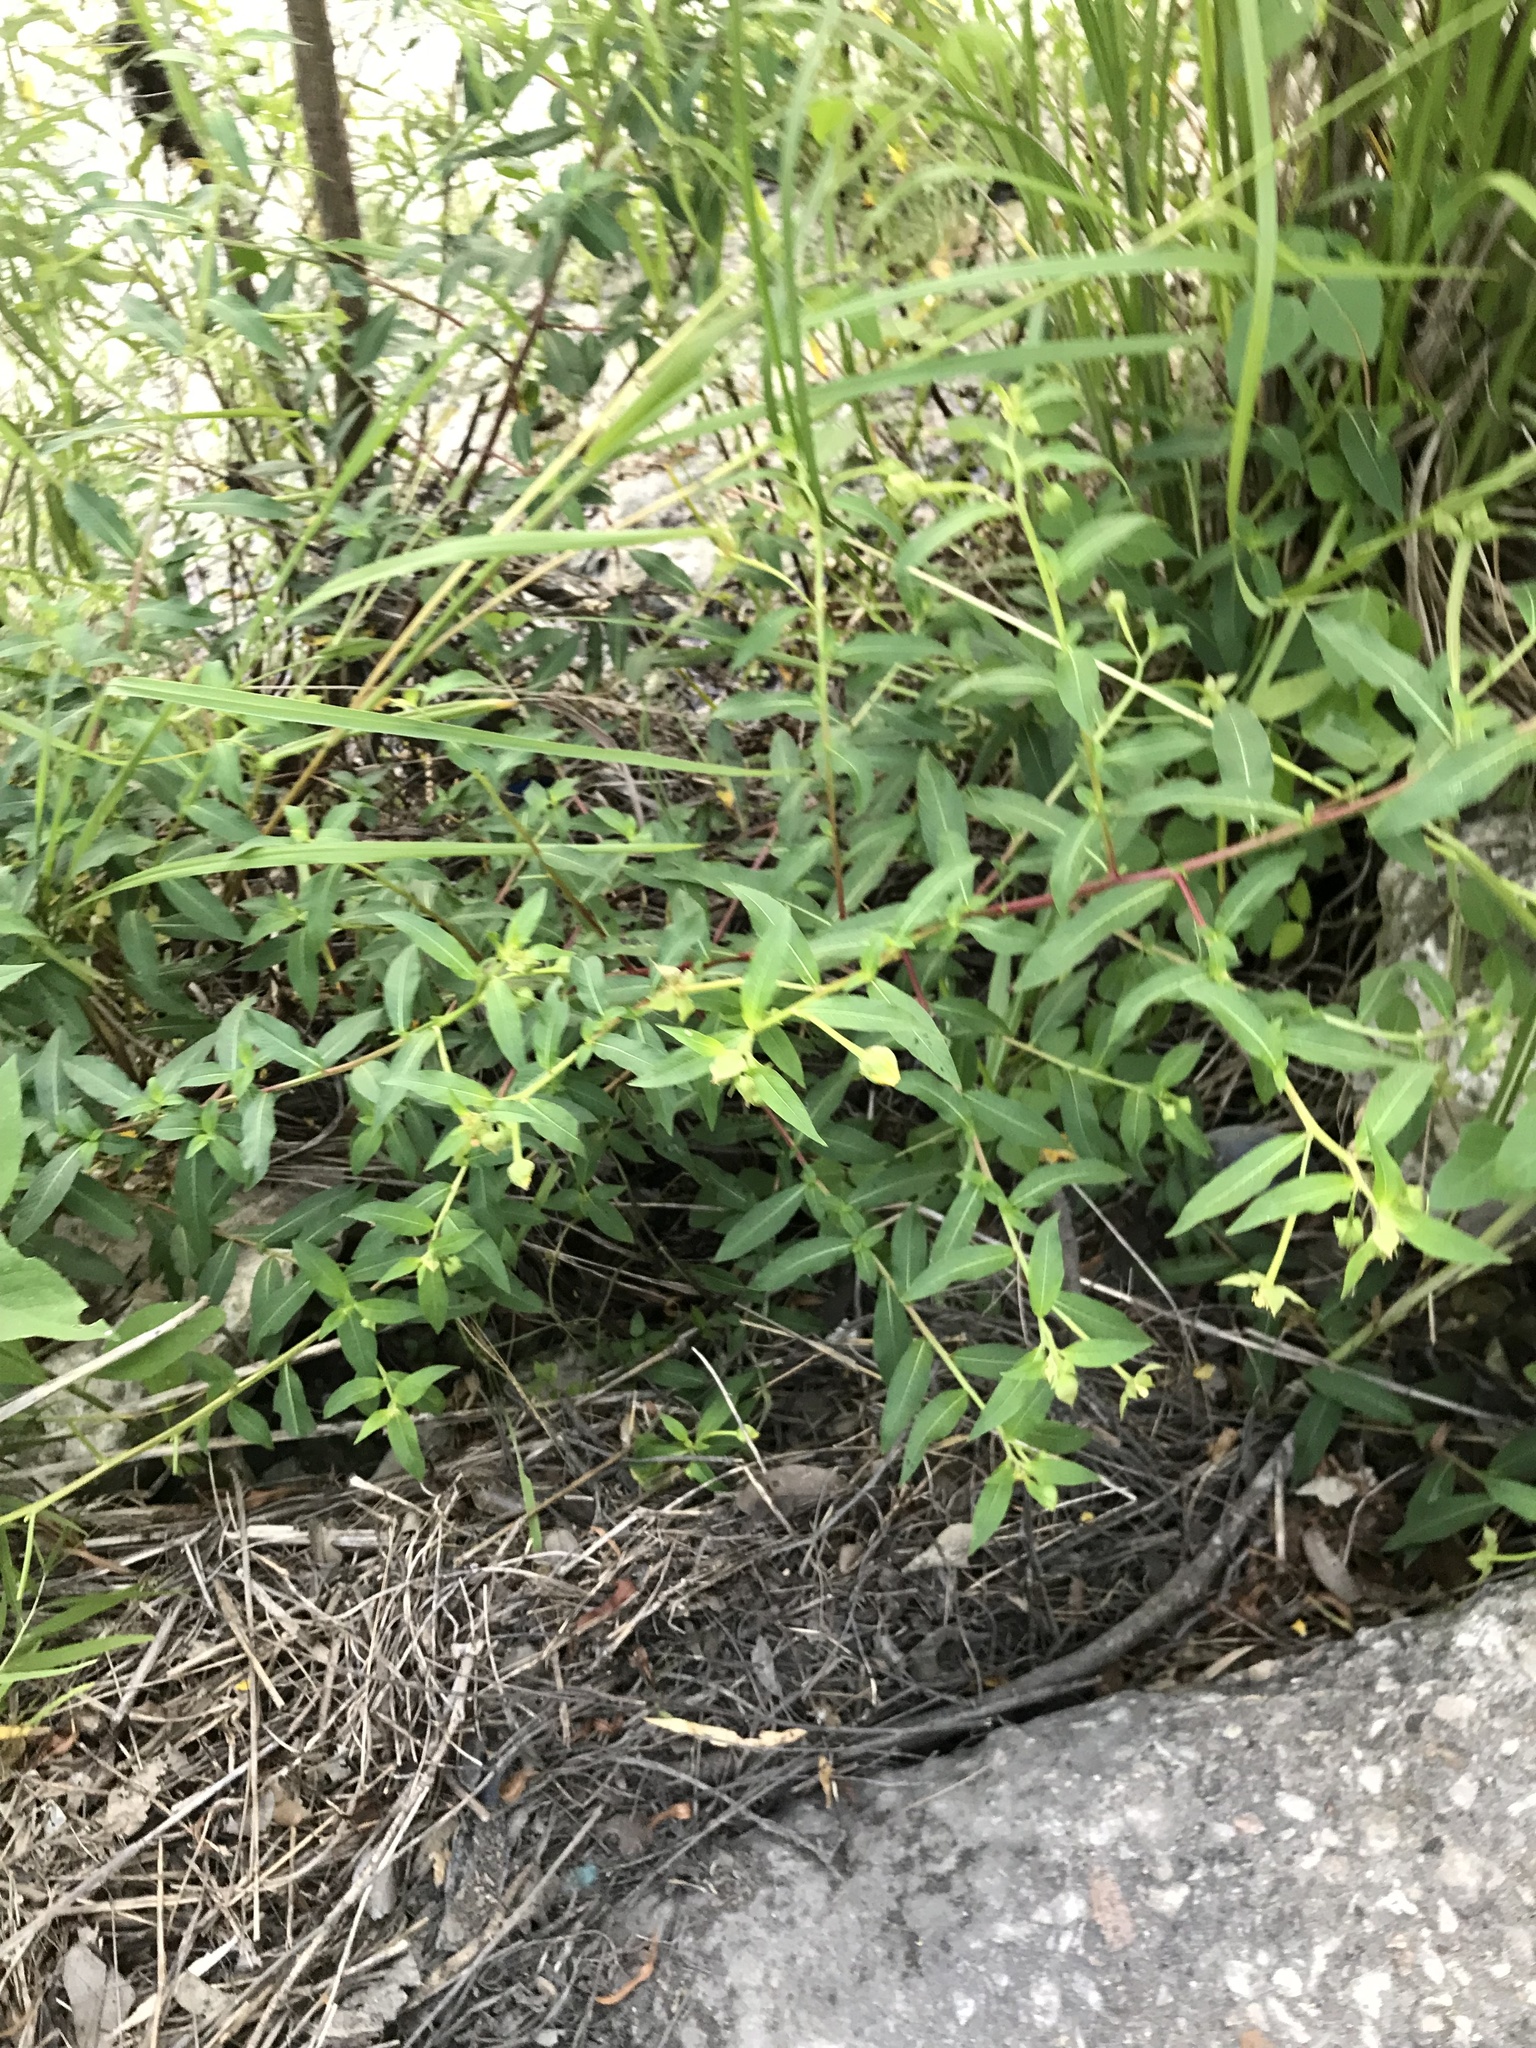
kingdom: Plantae
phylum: Tracheophyta
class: Magnoliopsida
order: Myrtales
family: Onagraceae
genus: Ludwigia
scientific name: Ludwigia octovalvis
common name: Water-primrose
